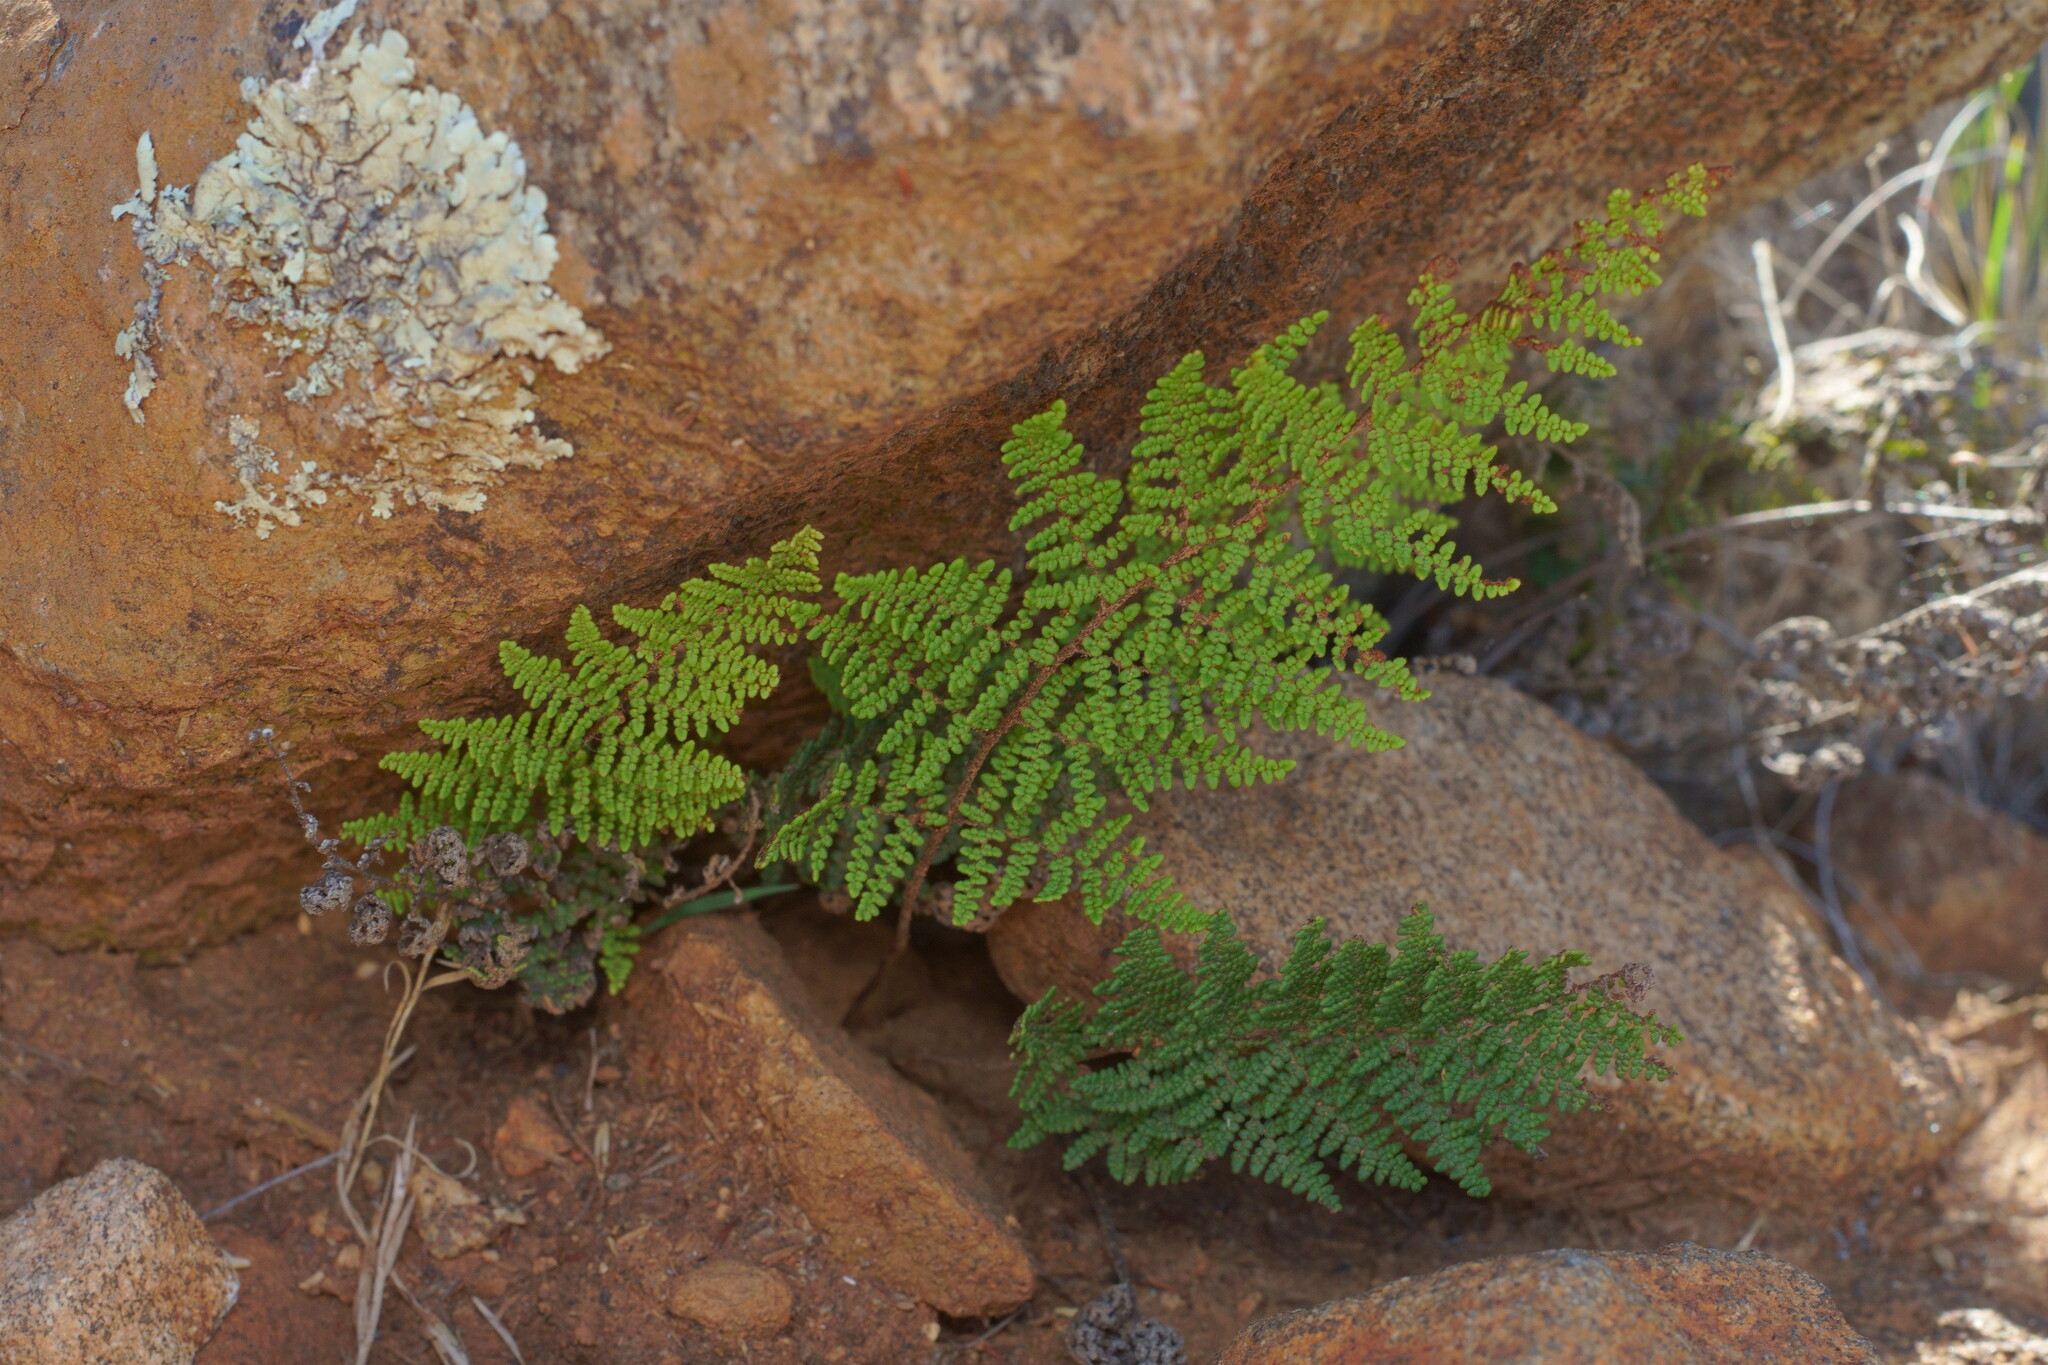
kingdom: Plantae
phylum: Tracheophyta
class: Polypodiopsida
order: Polypodiales
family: Pteridaceae
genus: Myriopteris
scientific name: Myriopteris clevelandii
